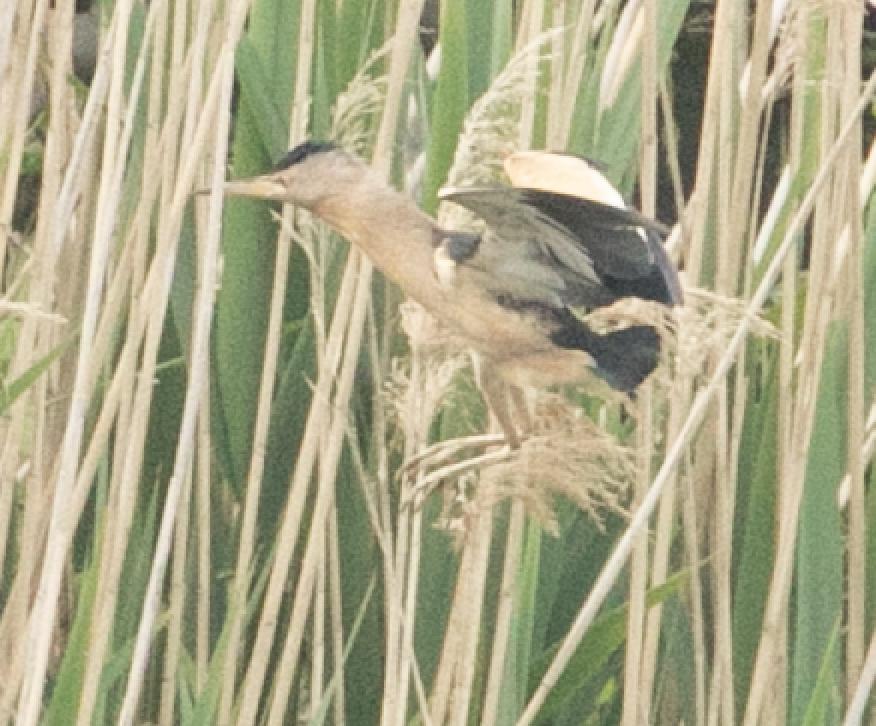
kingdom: Animalia
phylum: Chordata
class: Aves
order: Pelecaniformes
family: Ardeidae
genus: Ixobrychus
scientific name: Ixobrychus minutus
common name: Little bittern
